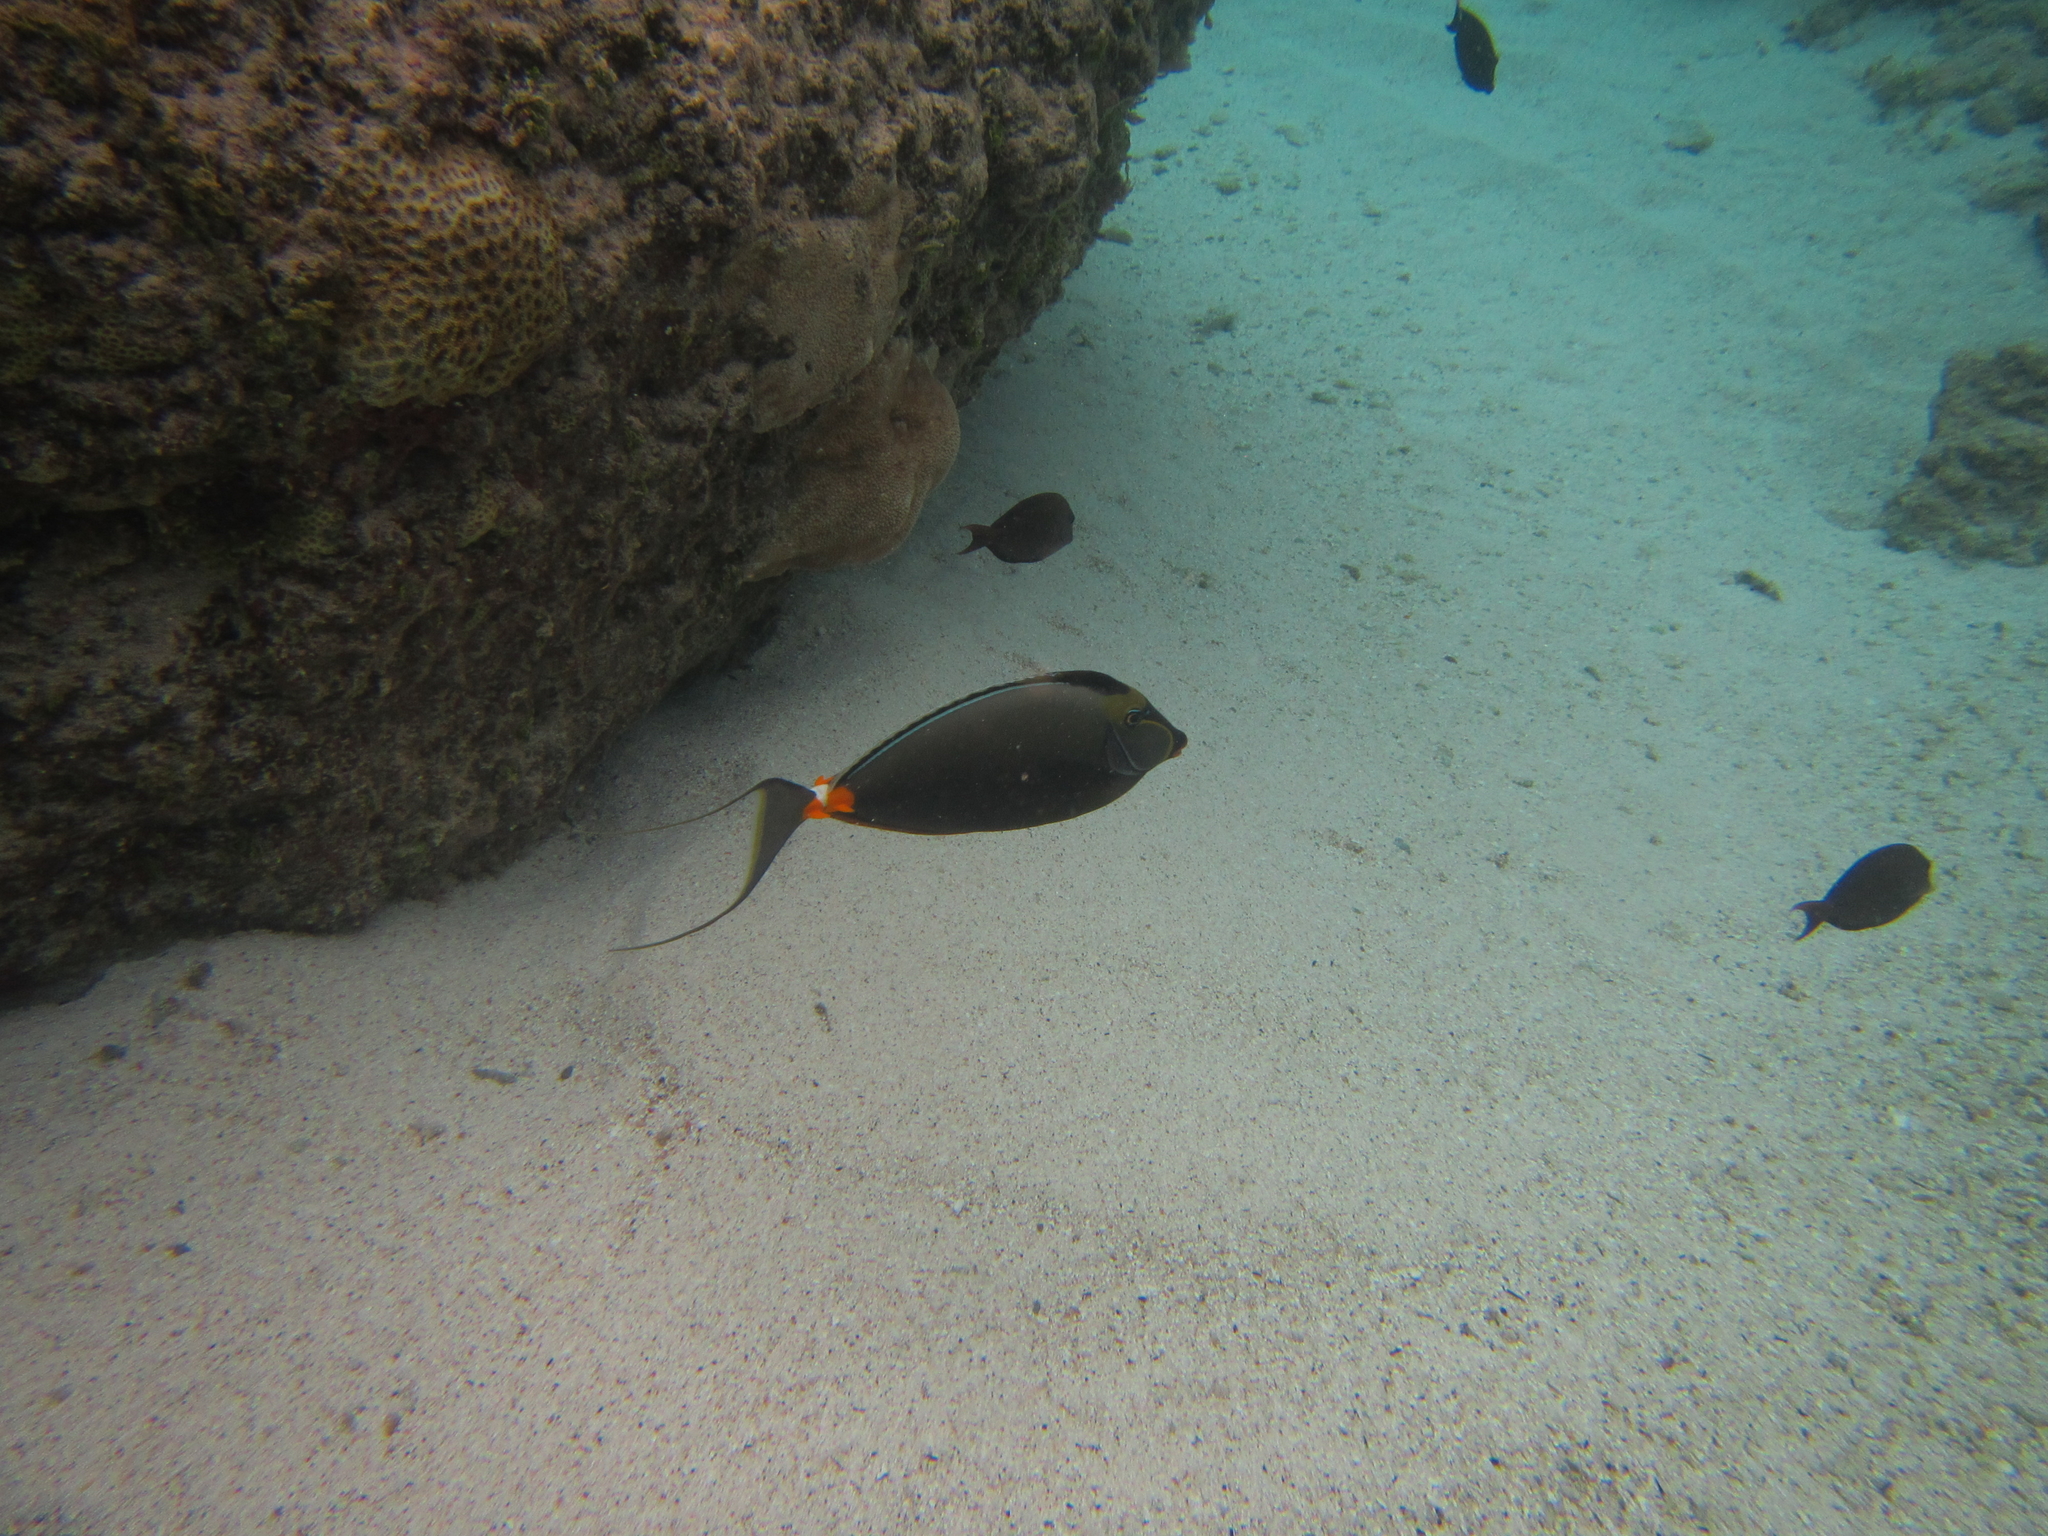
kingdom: Animalia
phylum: Chordata
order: Perciformes
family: Acanthuridae
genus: Naso
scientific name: Naso lituratus
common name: Orangespine unicornfish
